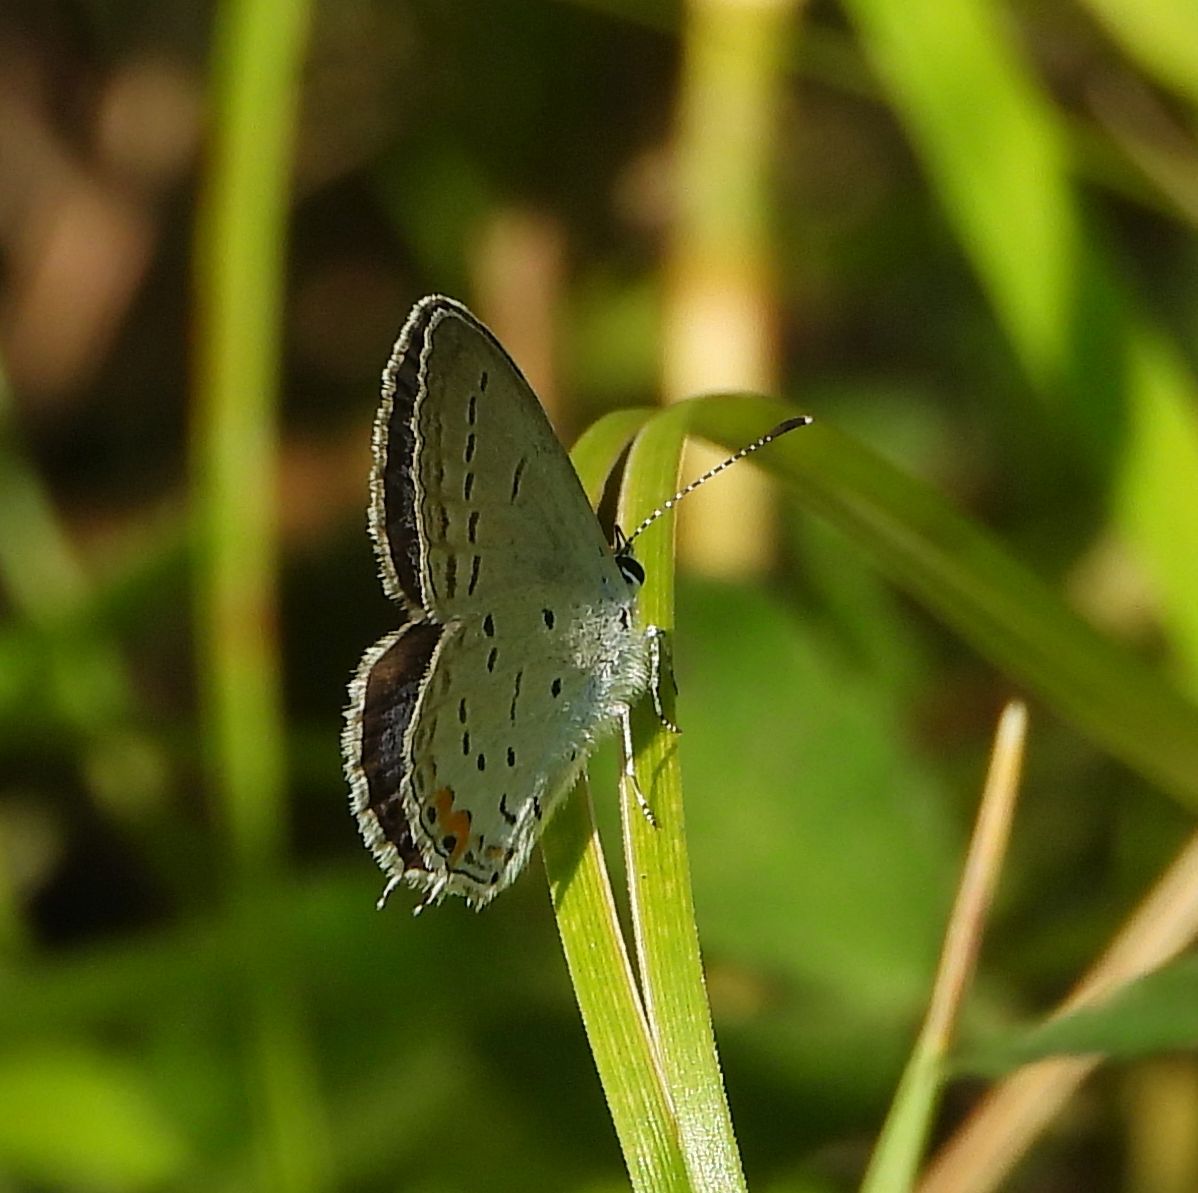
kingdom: Animalia
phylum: Arthropoda
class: Insecta
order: Lepidoptera
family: Lycaenidae
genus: Elkalyce
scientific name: Elkalyce comyntas
